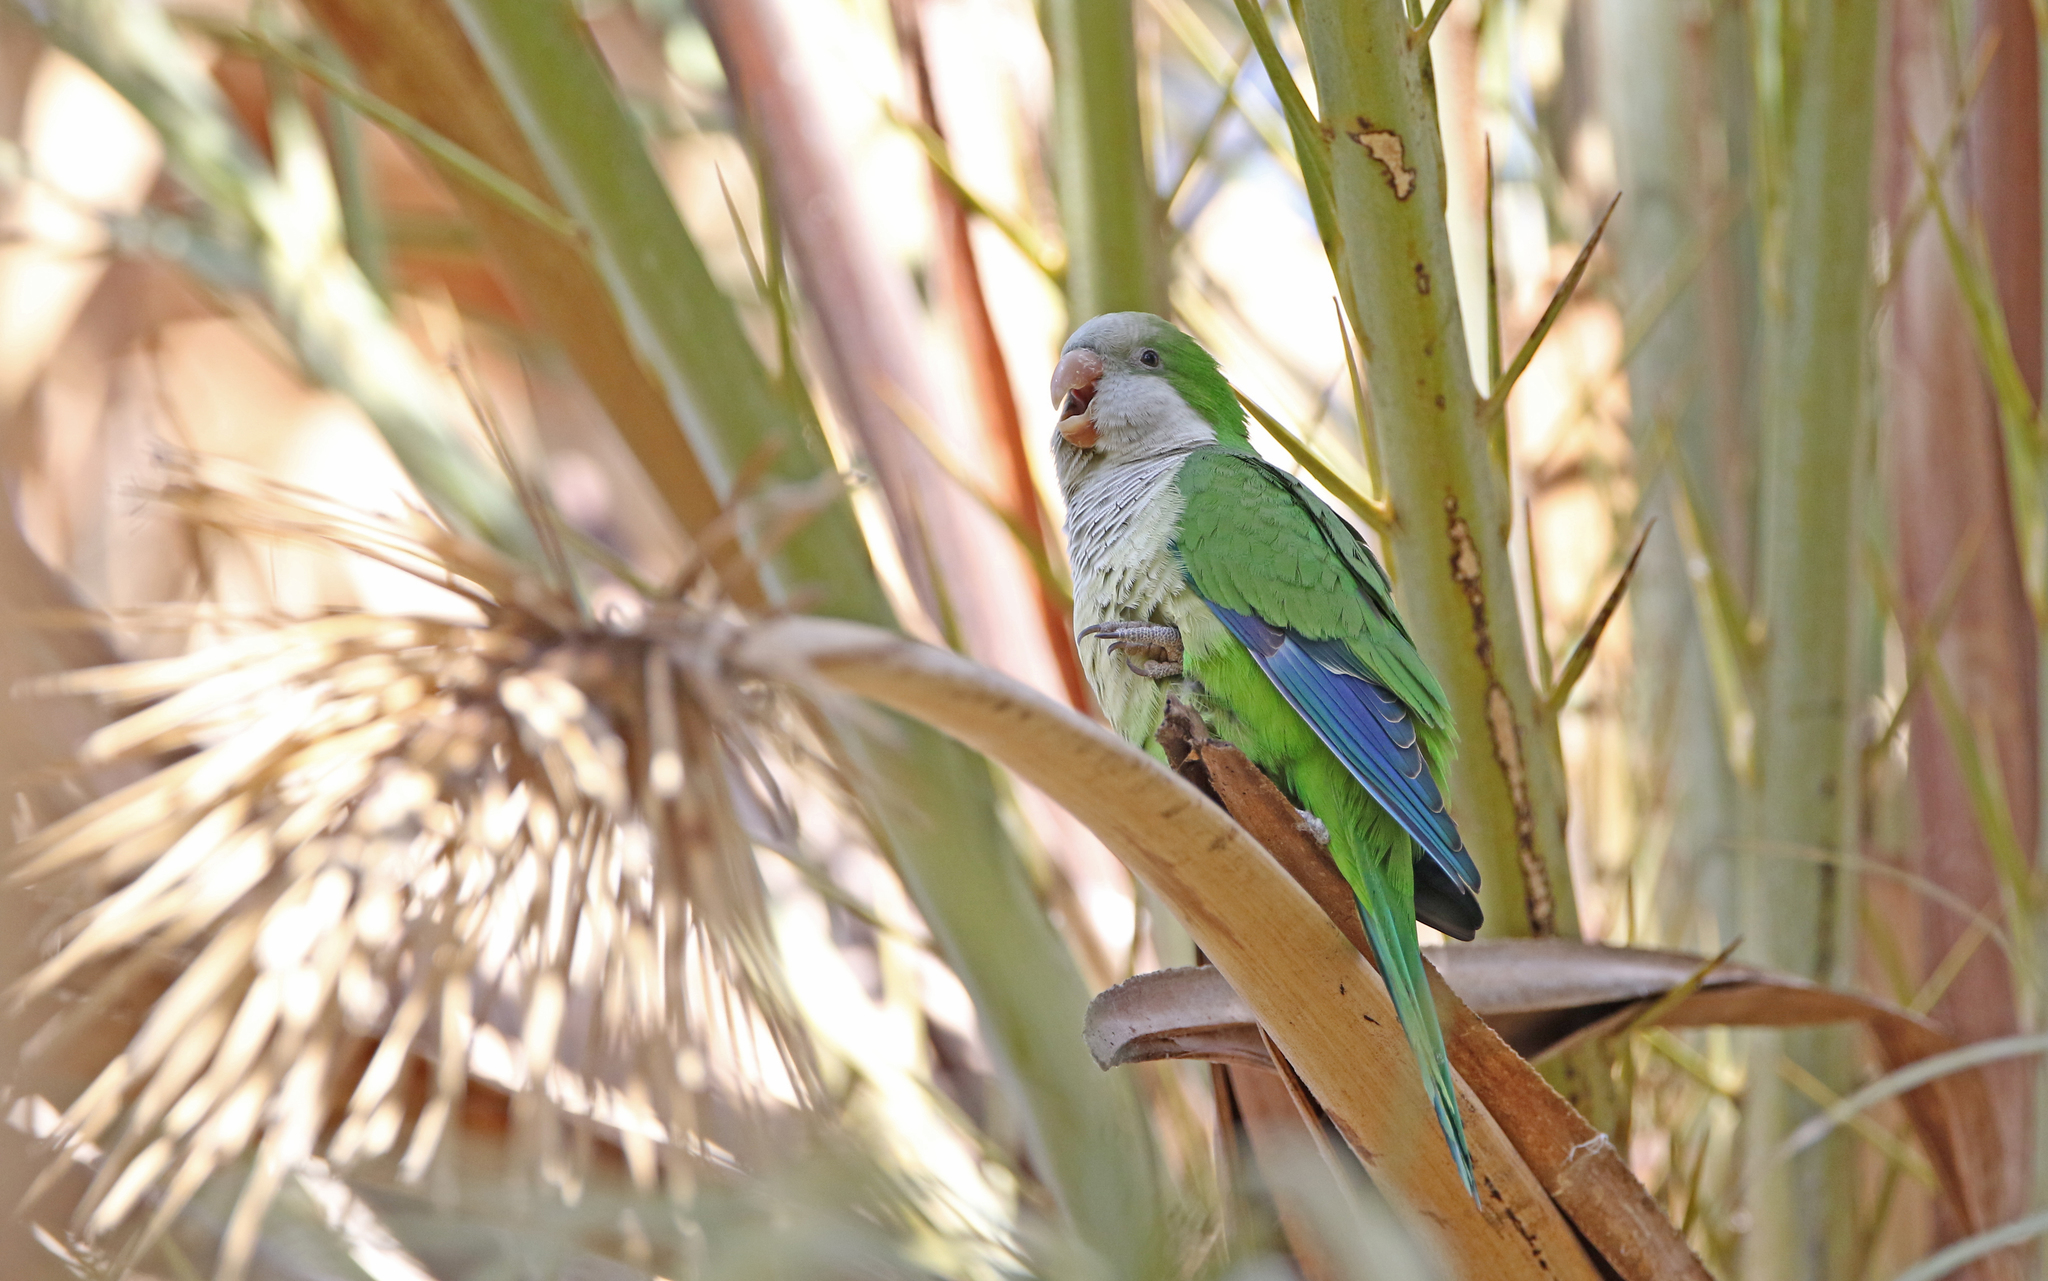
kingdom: Animalia
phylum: Chordata
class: Aves
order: Psittaciformes
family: Psittacidae
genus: Myiopsitta
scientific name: Myiopsitta monachus
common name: Monk parakeet
